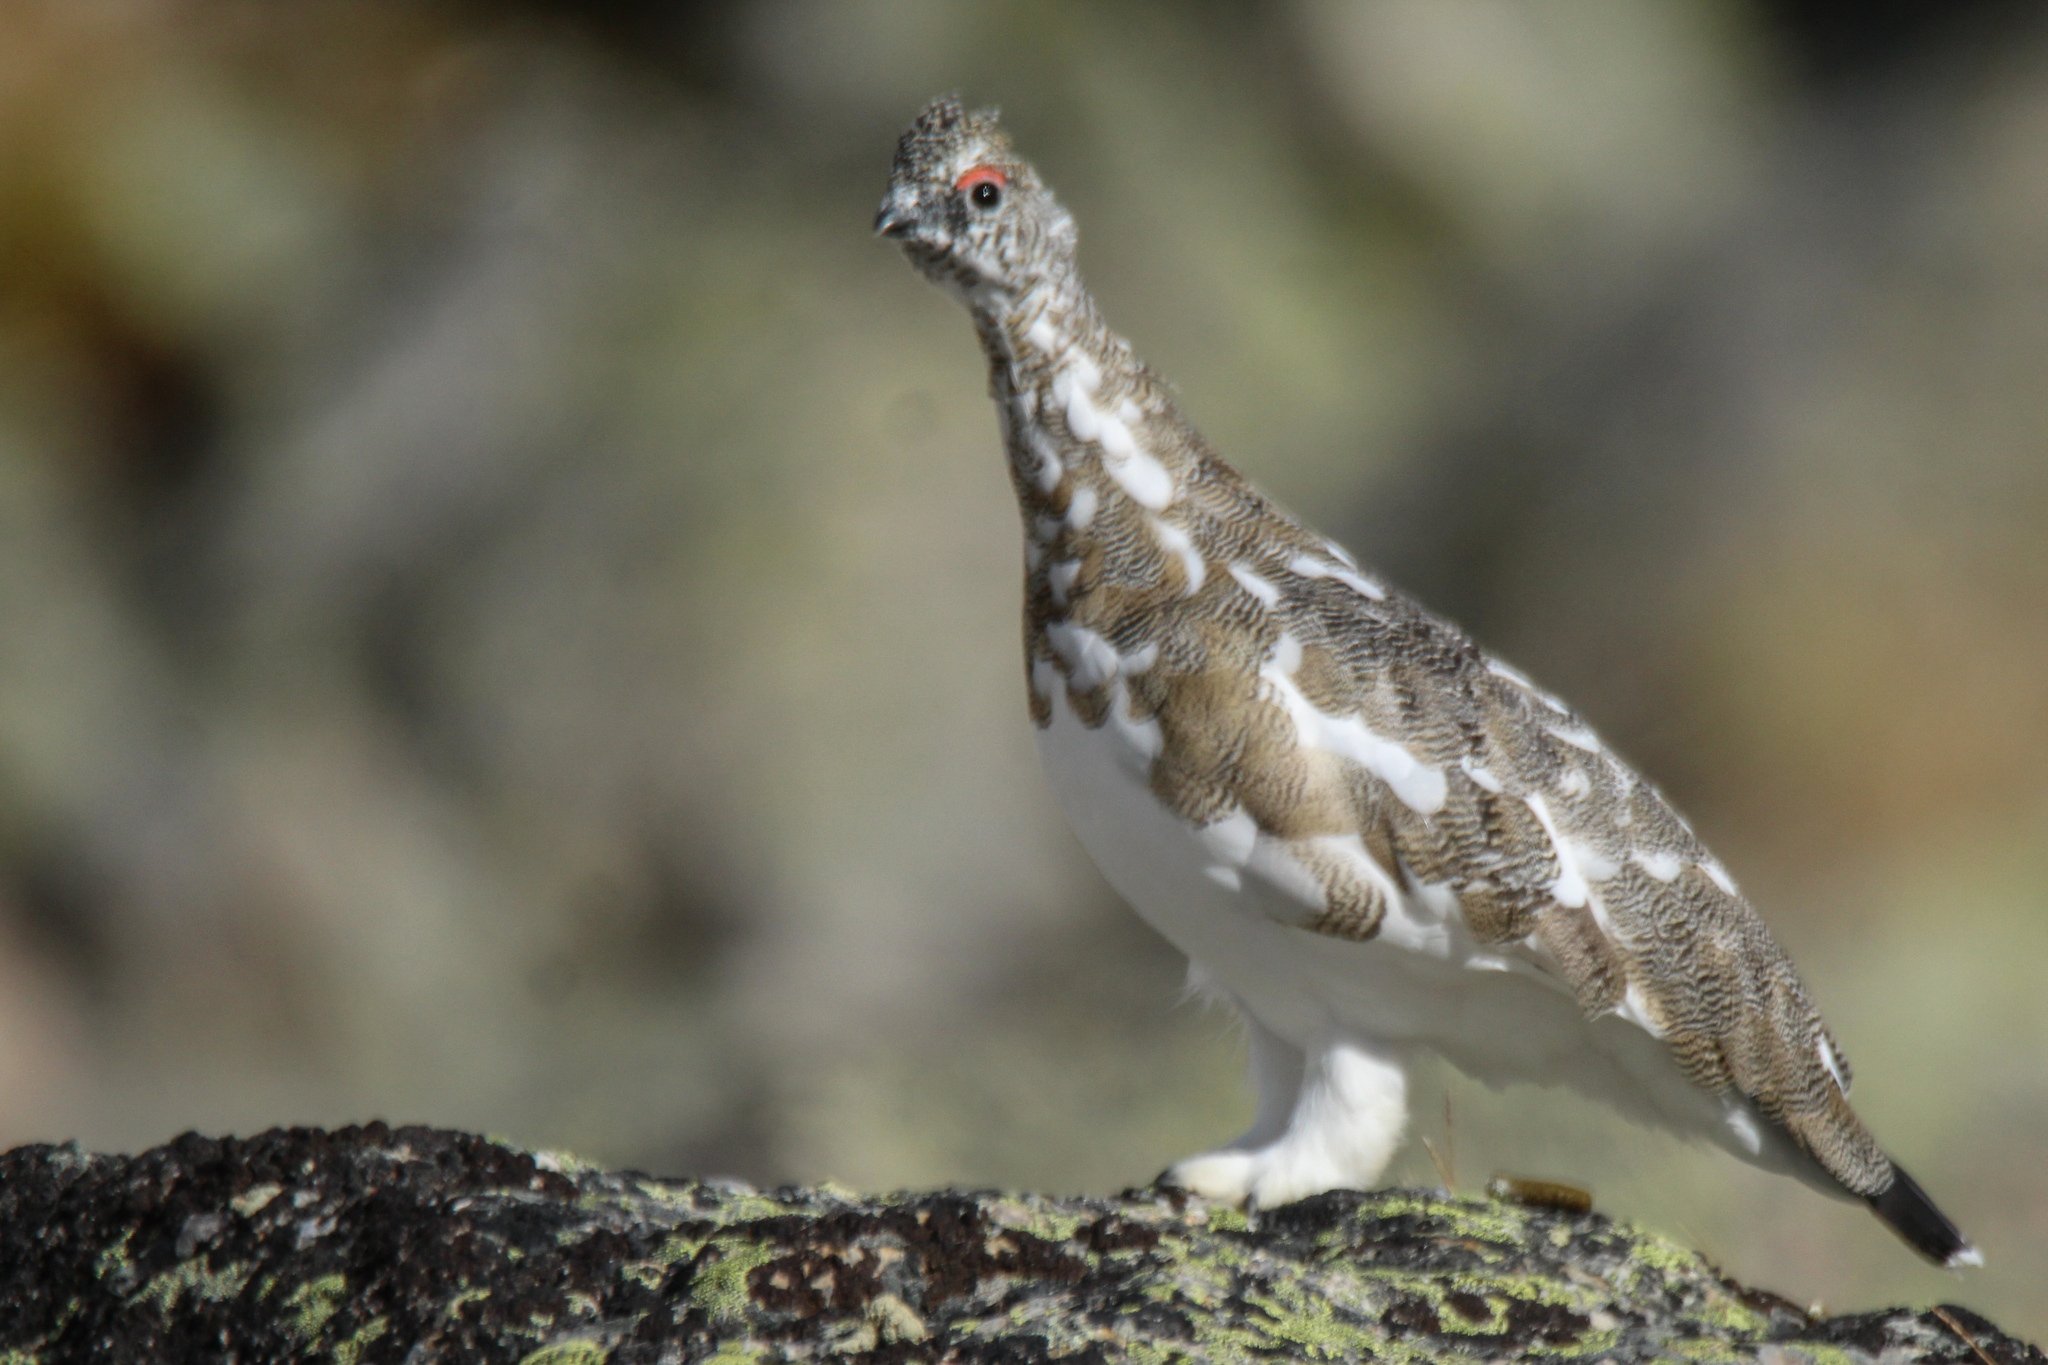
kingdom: Animalia
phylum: Chordata
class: Aves
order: Galliformes
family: Phasianidae
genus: Lagopus
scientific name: Lagopus muta
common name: Rock ptarmigan
